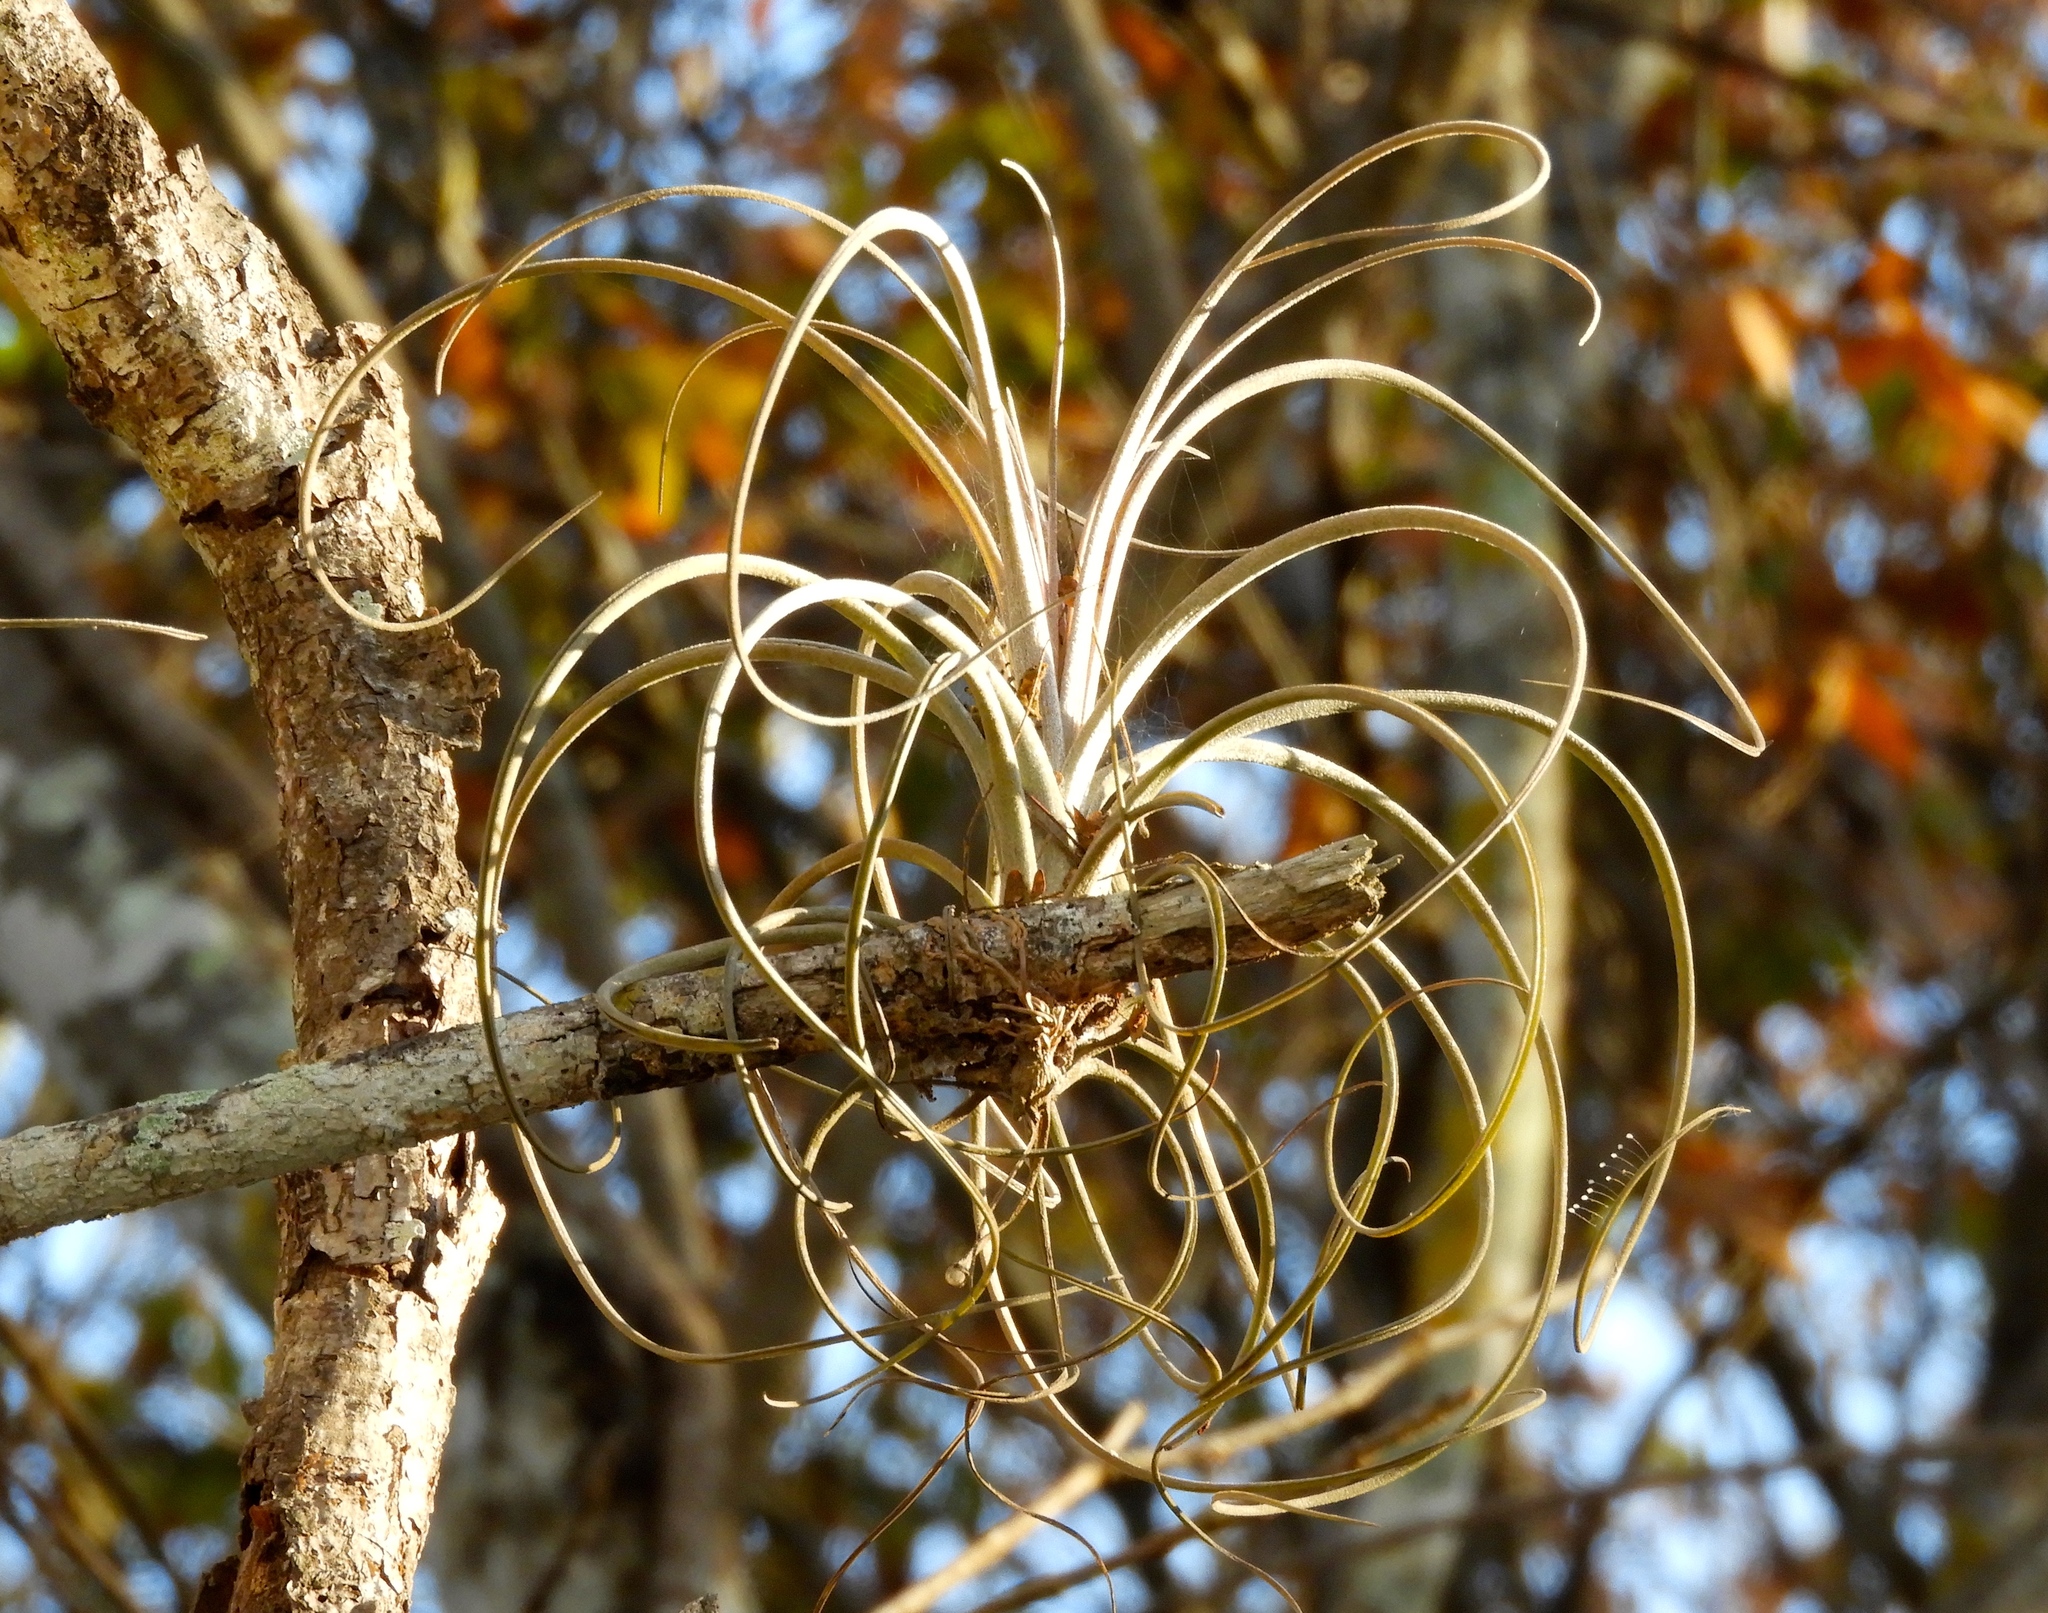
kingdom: Plantae
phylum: Tracheophyta
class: Liliopsida
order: Poales
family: Bromeliaceae
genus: Tillandsia
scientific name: Tillandsia exserta
